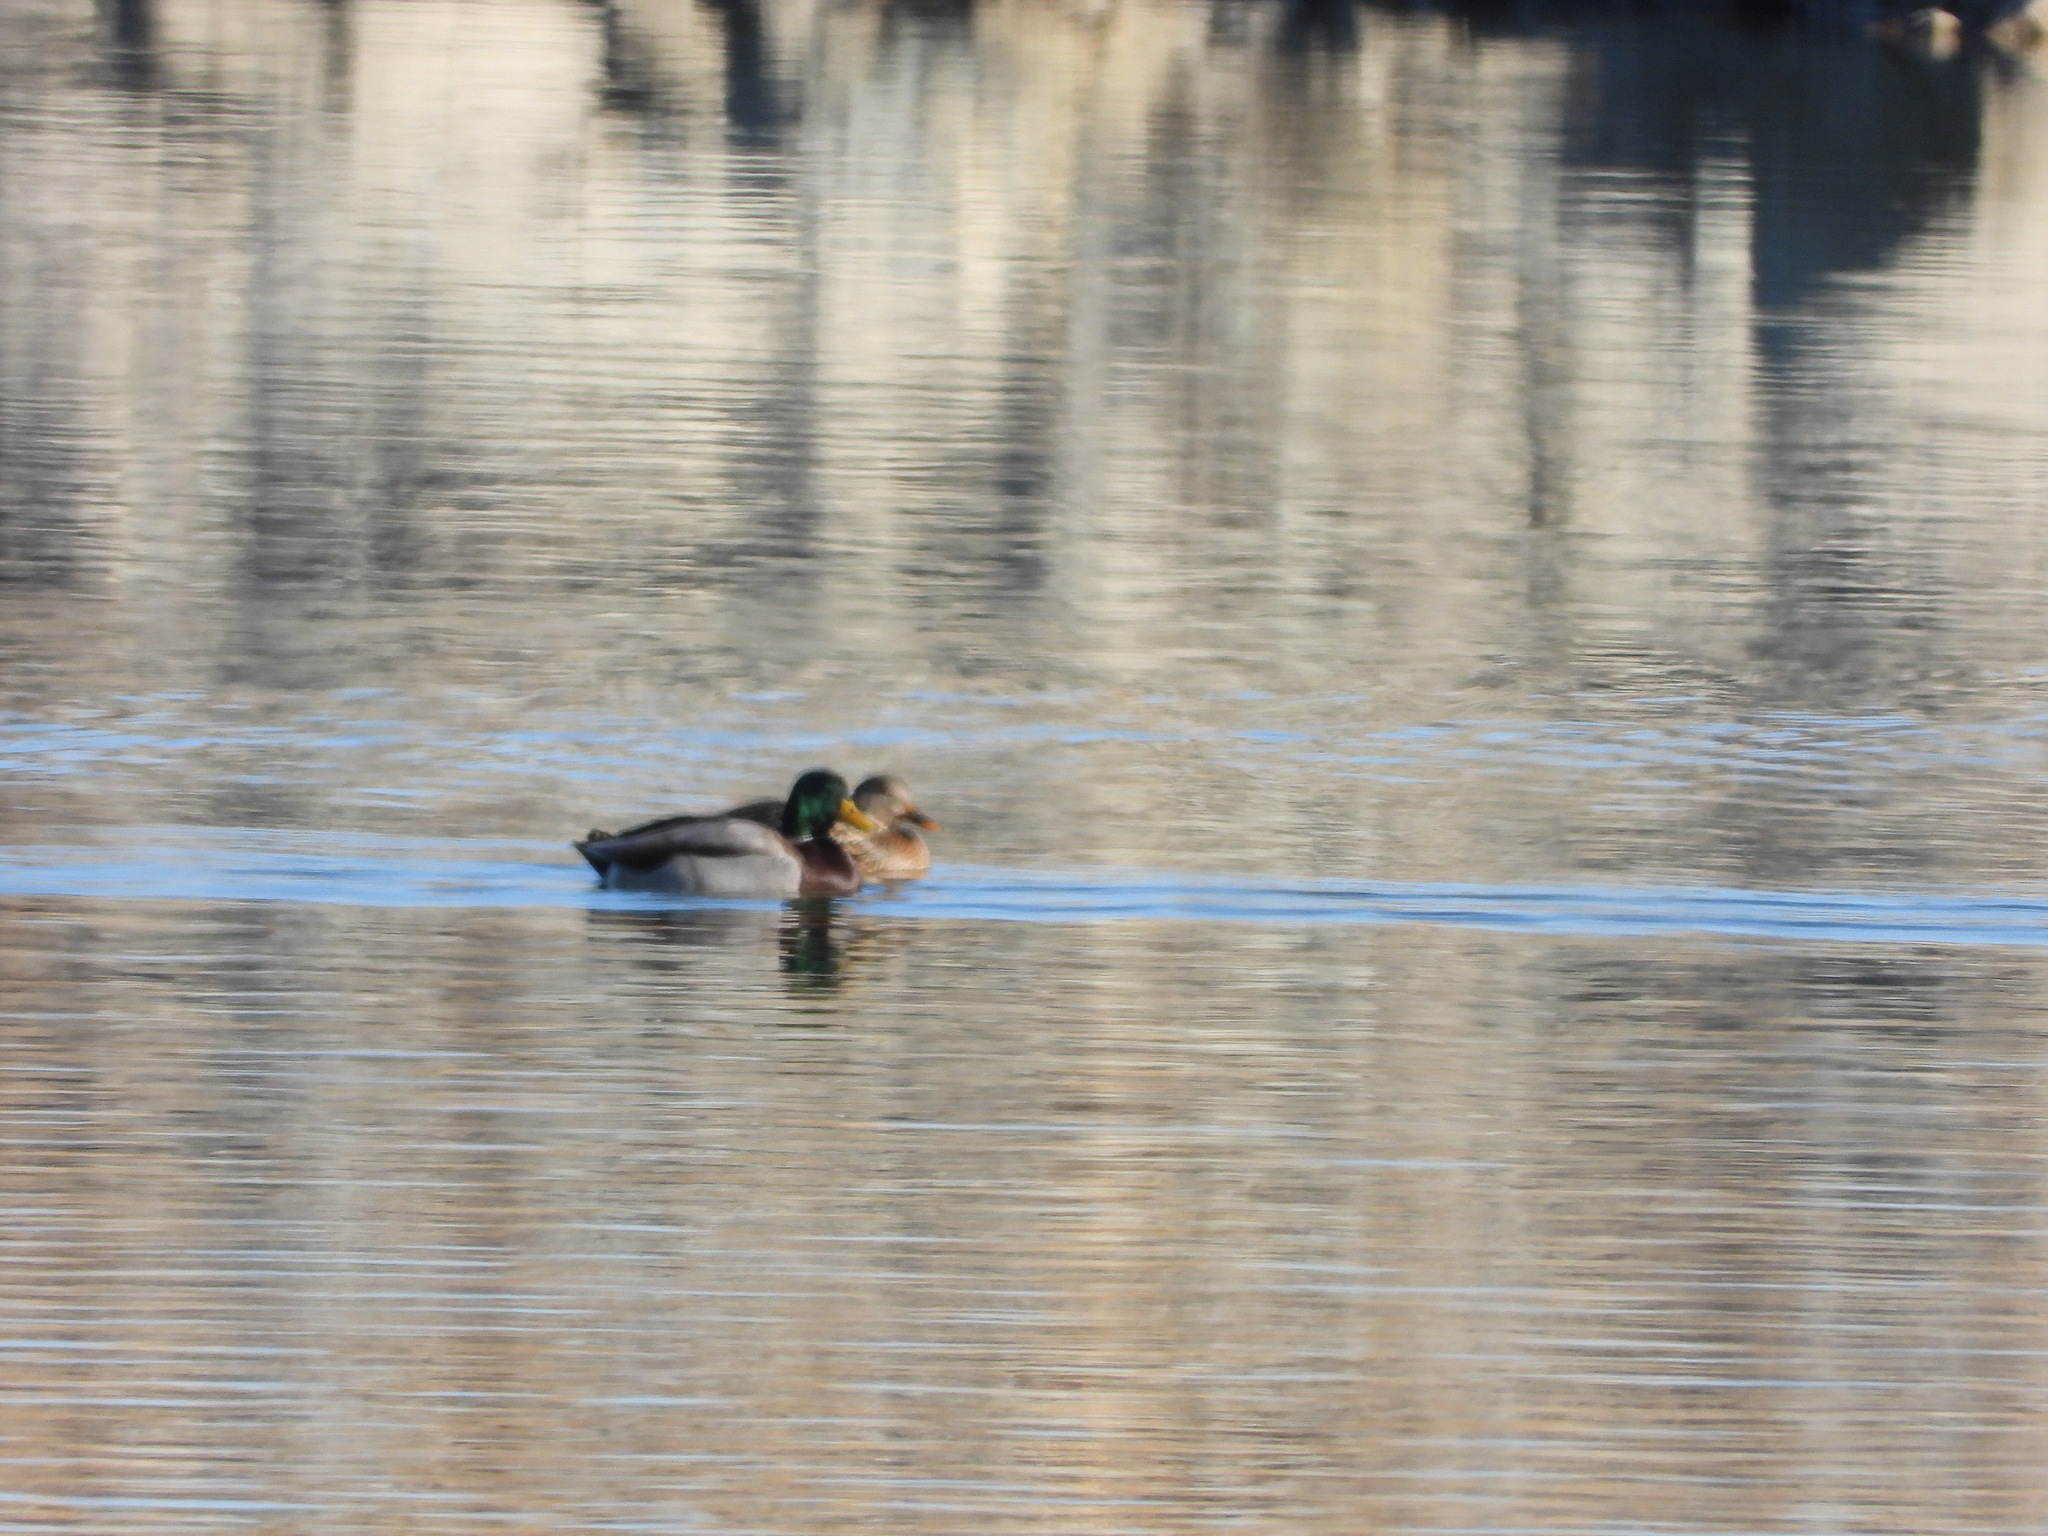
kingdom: Animalia
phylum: Chordata
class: Aves
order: Anseriformes
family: Anatidae
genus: Anas
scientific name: Anas platyrhynchos
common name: Mallard
